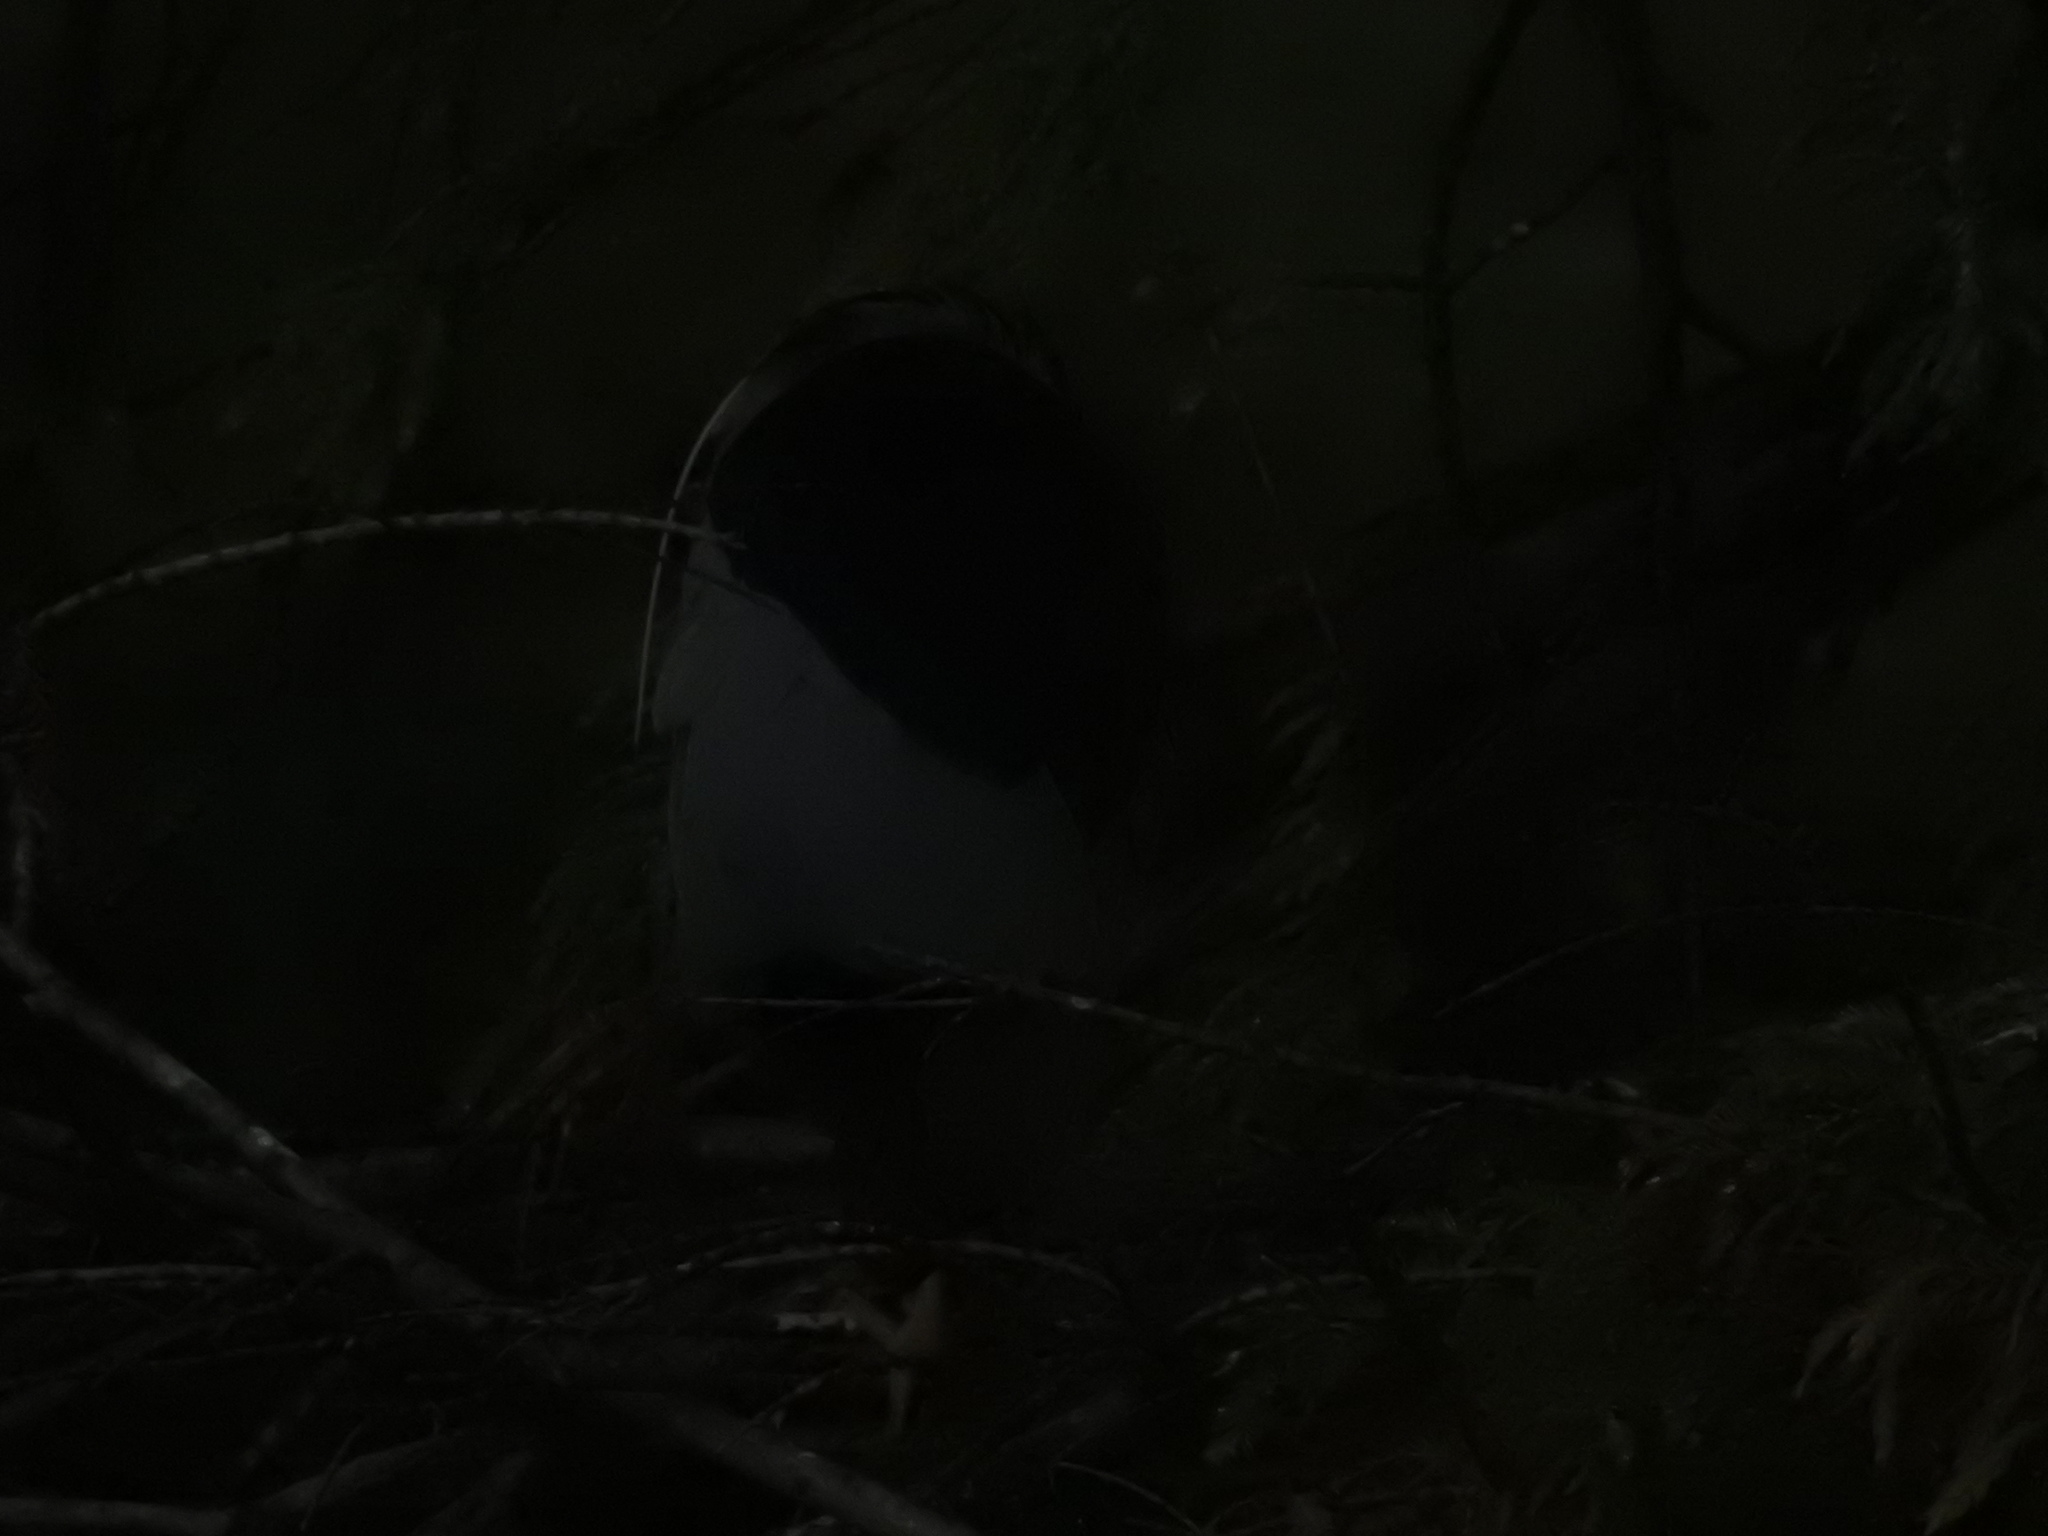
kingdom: Animalia
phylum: Chordata
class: Aves
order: Pelecaniformes
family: Ardeidae
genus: Nycticorax
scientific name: Nycticorax nycticorax
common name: Black-crowned night heron
